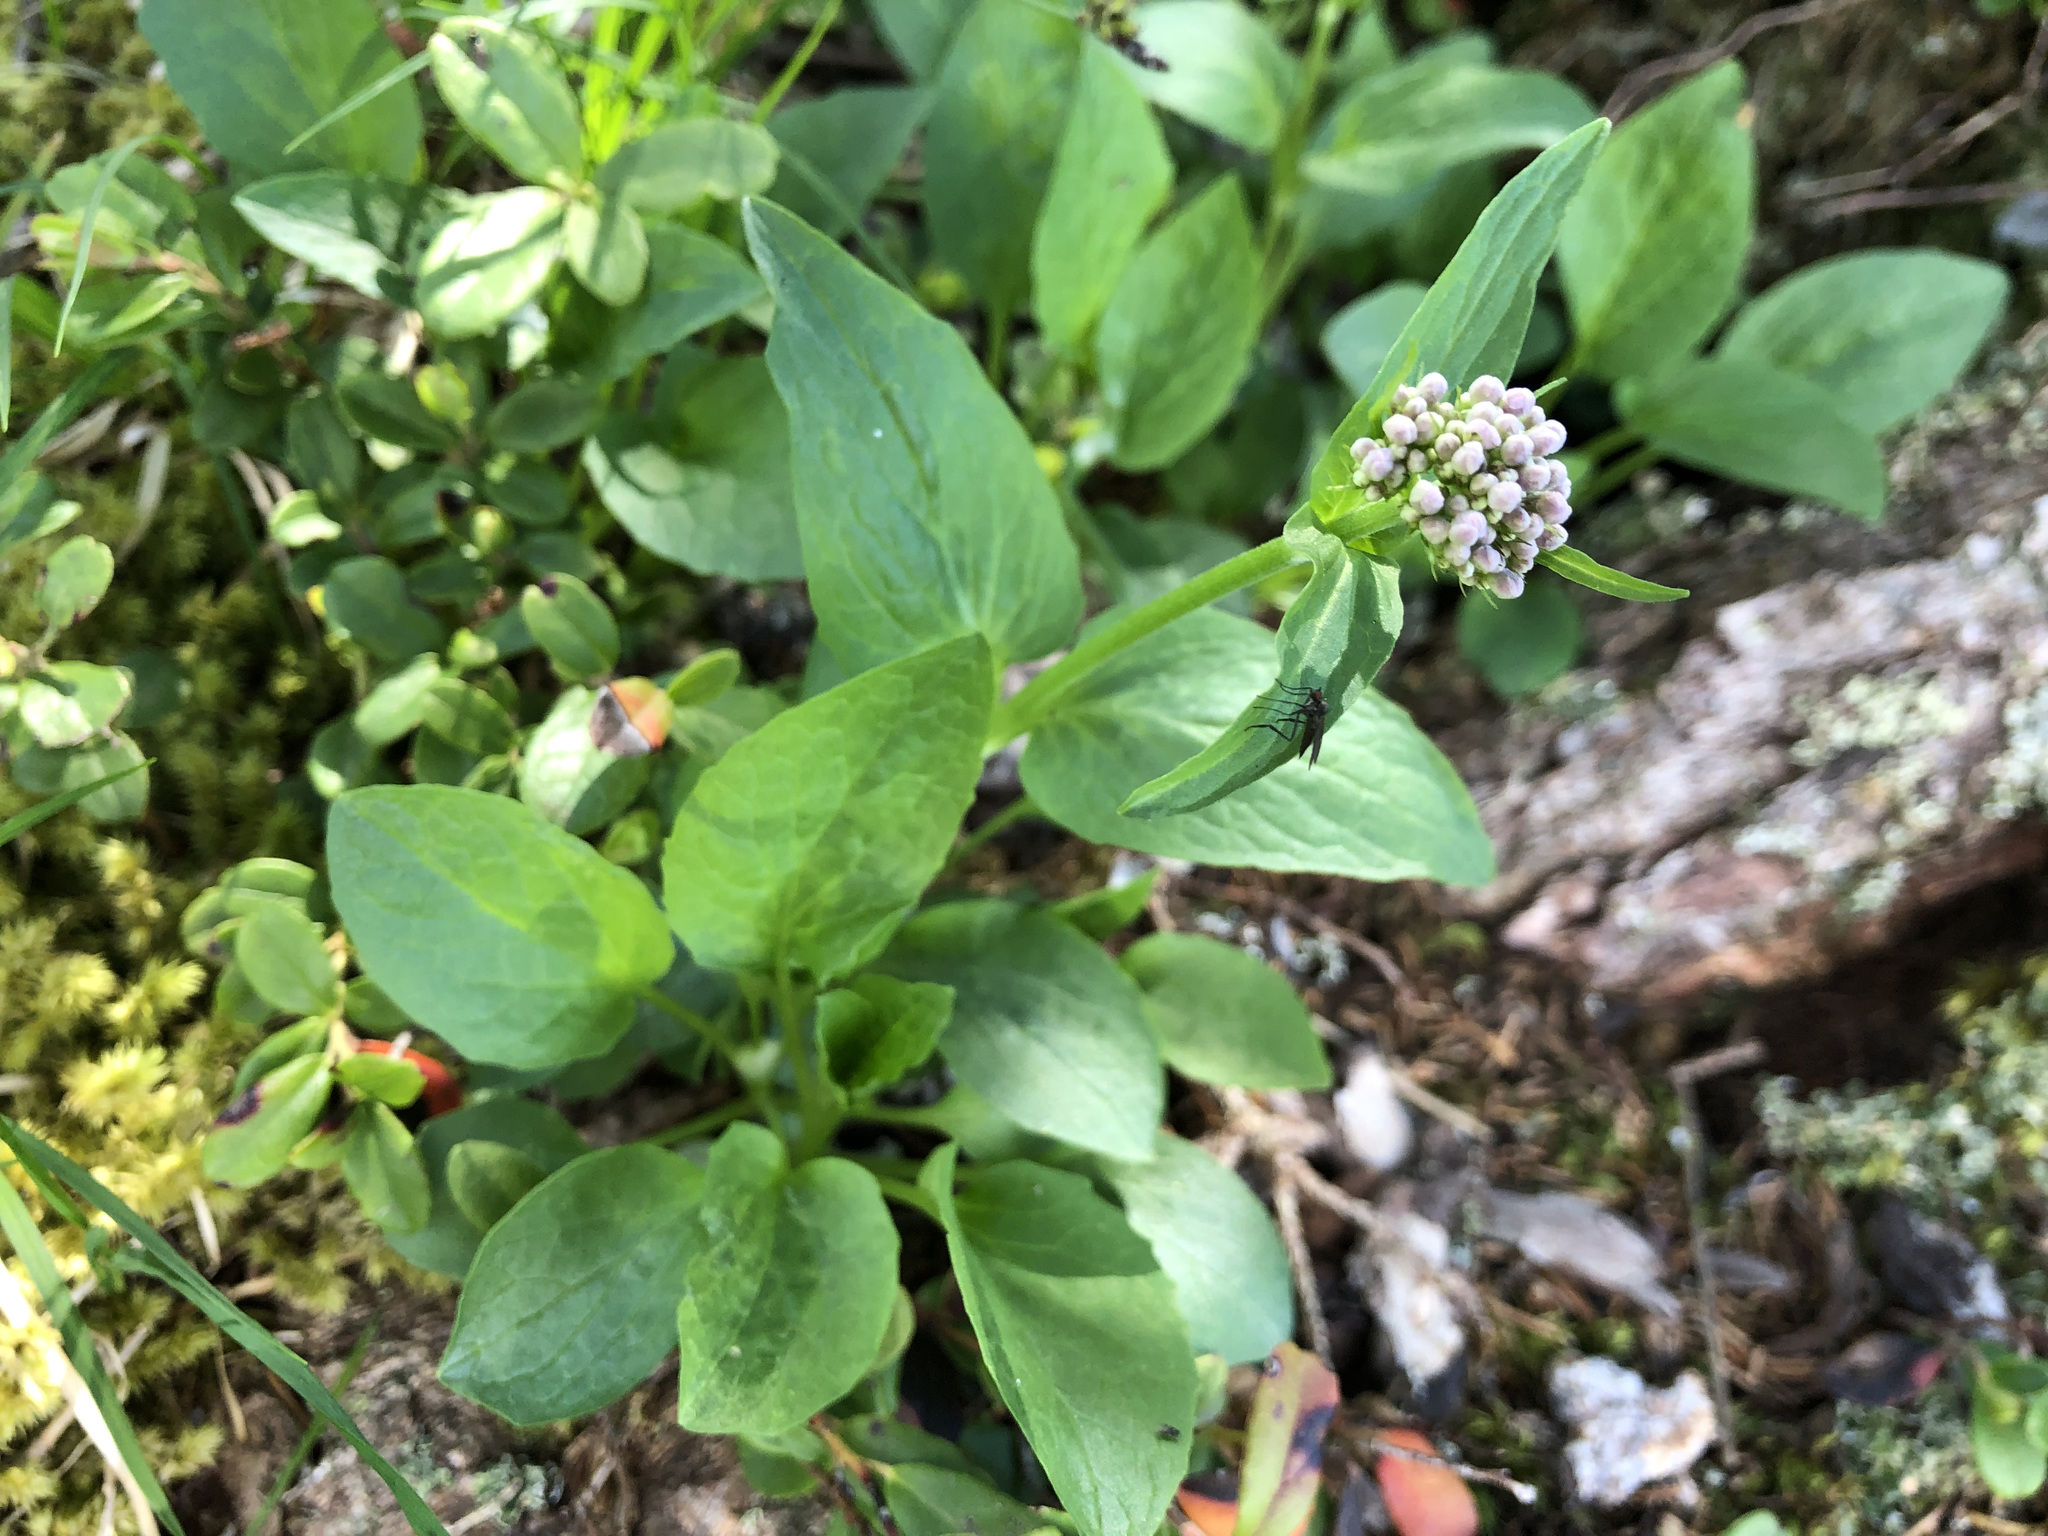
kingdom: Plantae
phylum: Tracheophyta
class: Magnoliopsida
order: Dipsacales
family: Caprifoliaceae
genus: Valeriana
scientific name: Valeriana montana
